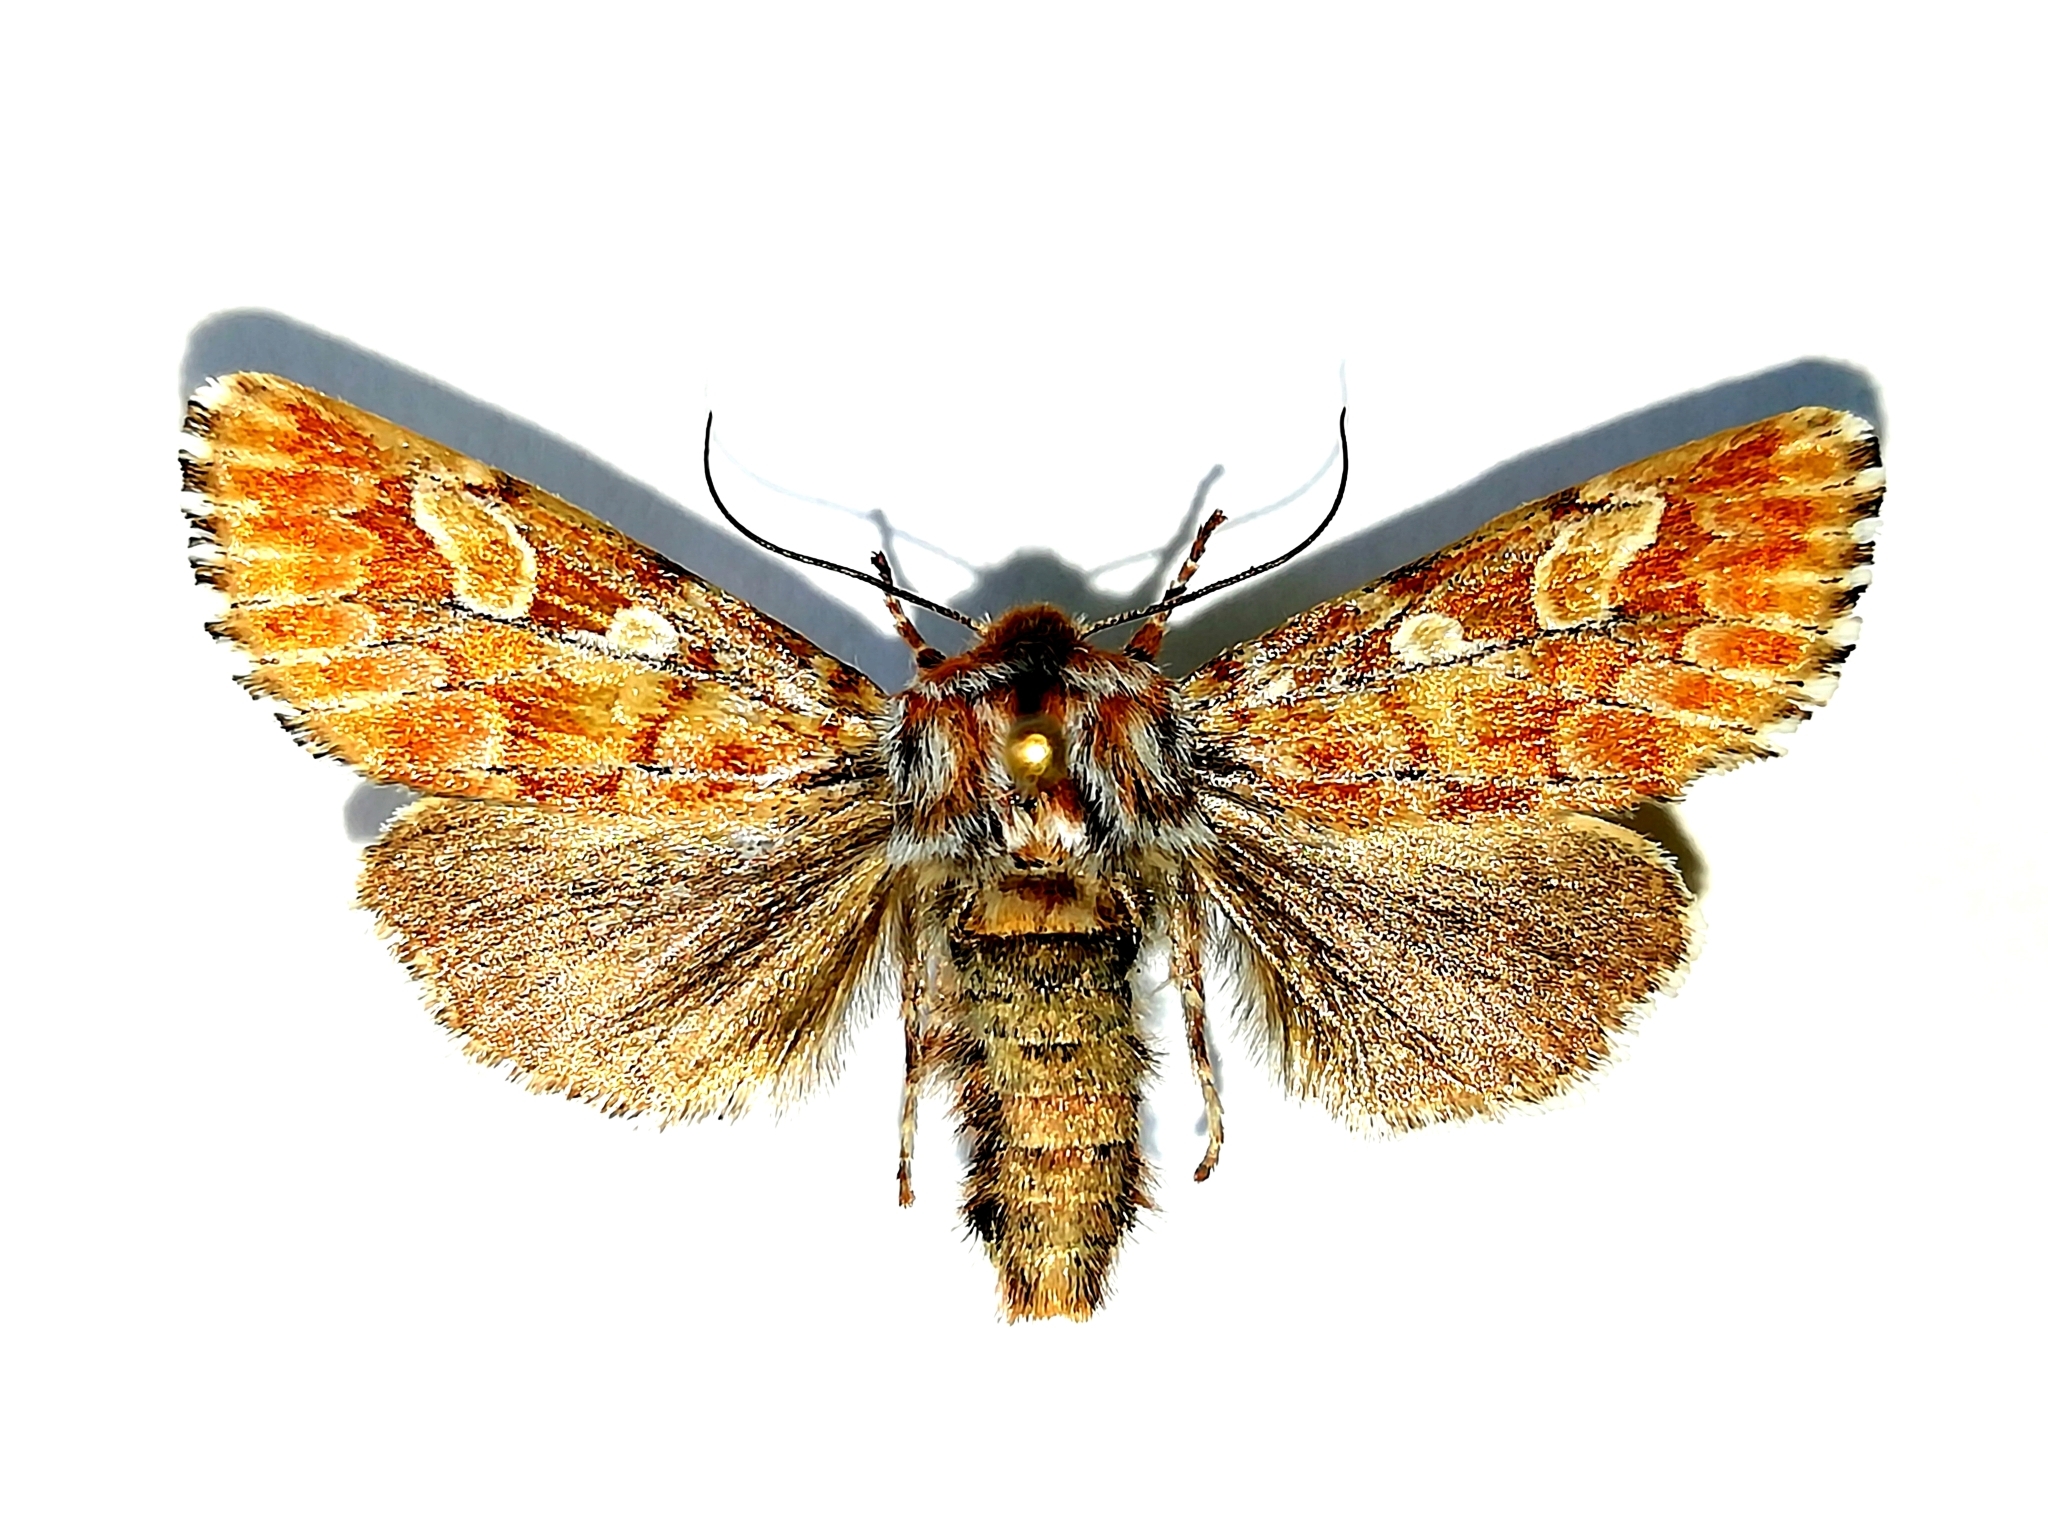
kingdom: Animalia
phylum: Arthropoda
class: Insecta
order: Lepidoptera
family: Noctuidae
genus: Panolis
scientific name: Panolis flammea
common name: Pine beauty
